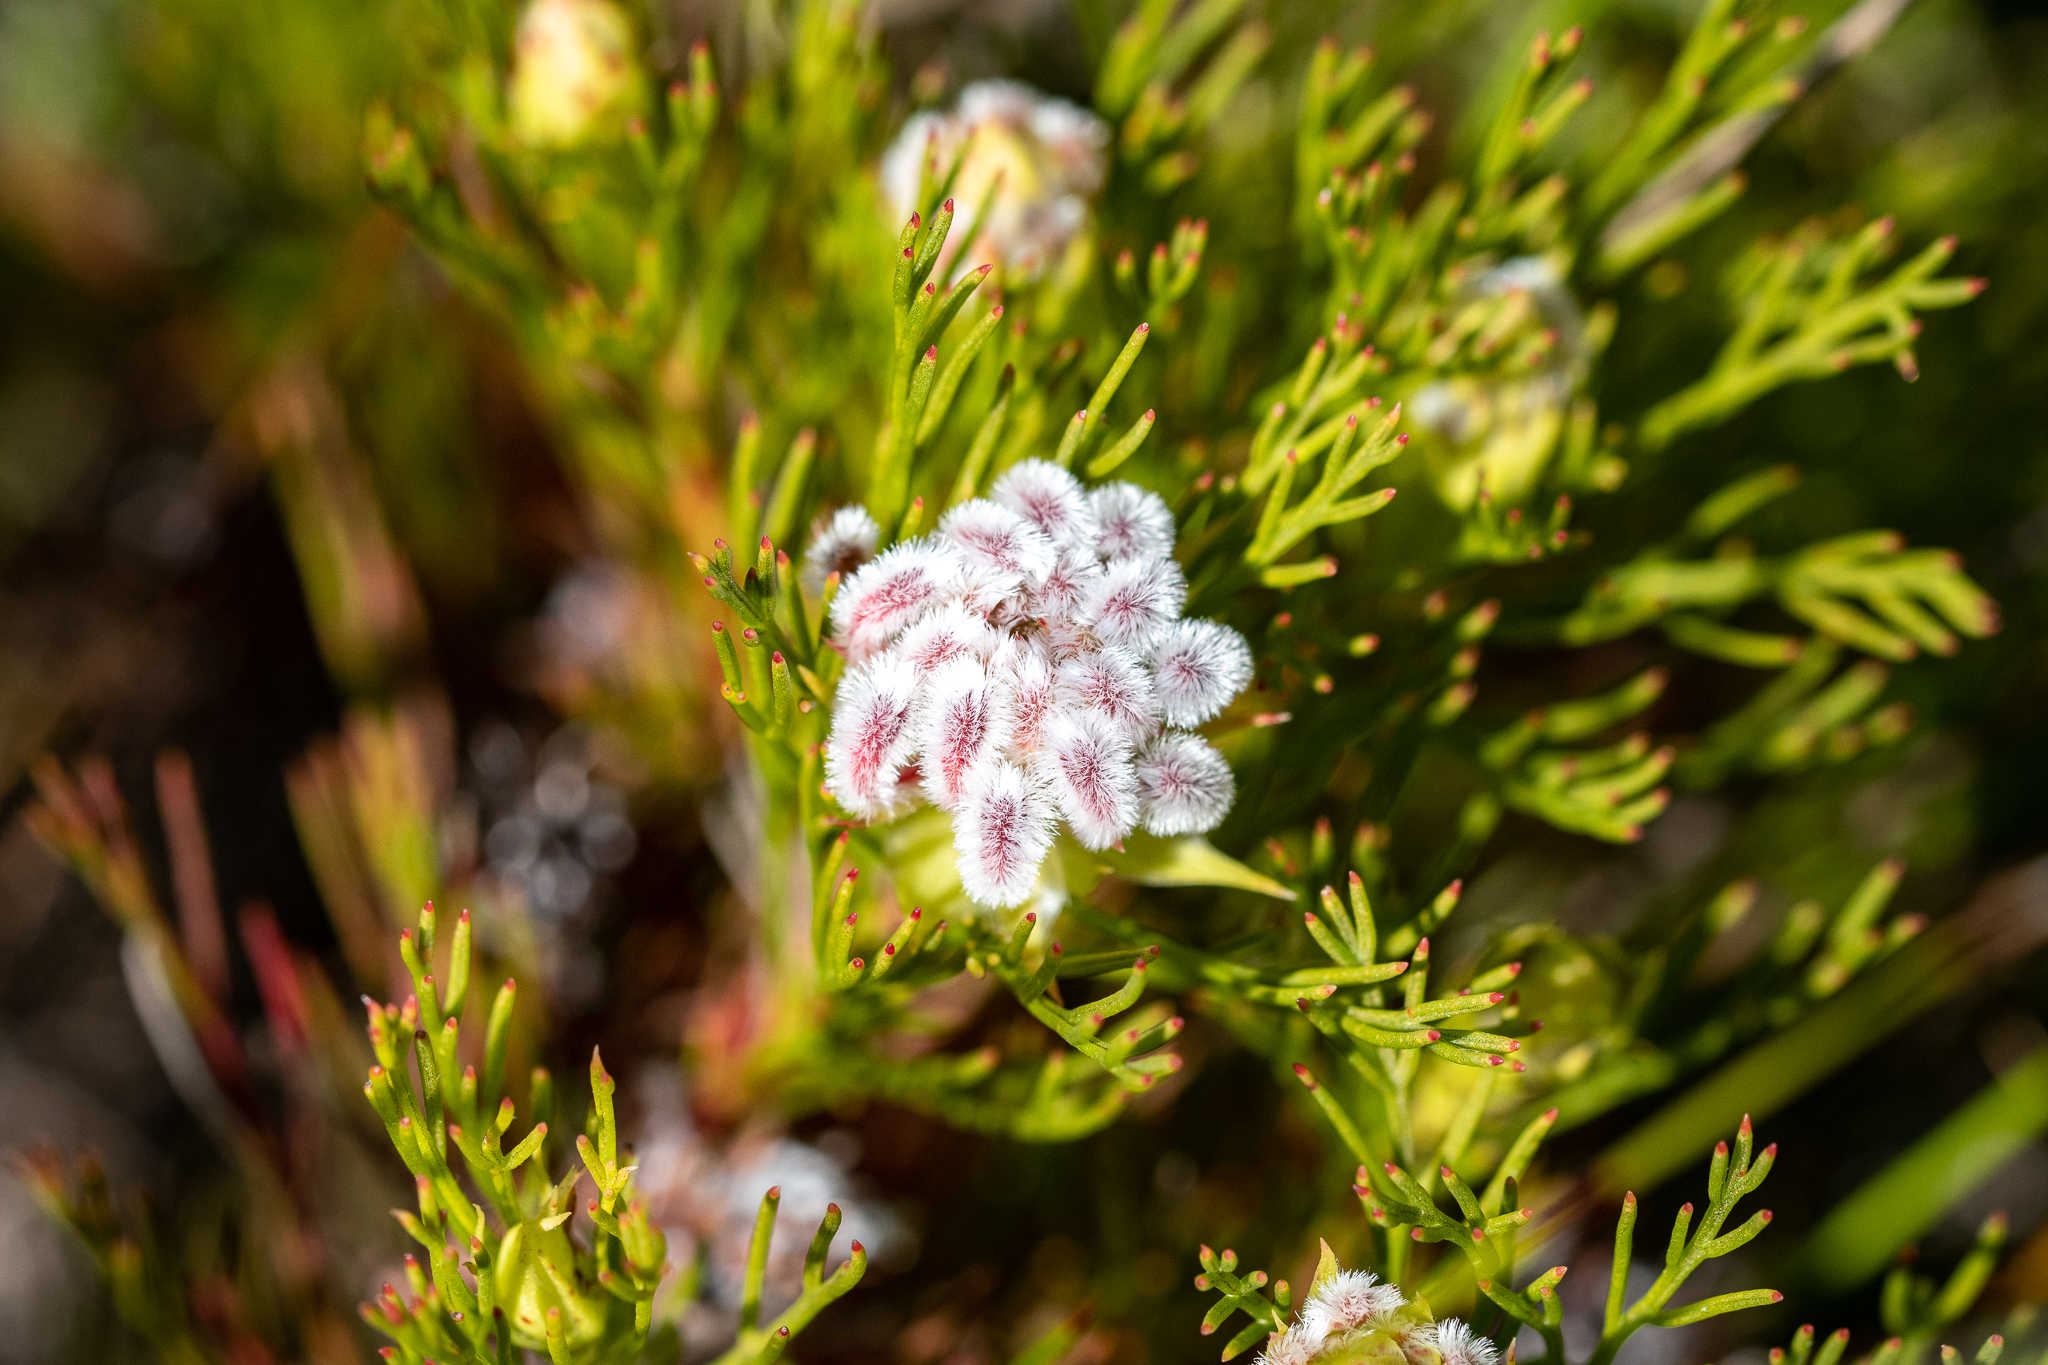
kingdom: Plantae
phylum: Tracheophyta
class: Magnoliopsida
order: Proteales
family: Proteaceae
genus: Serruria
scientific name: Serruria rostellaris
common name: Remote spiderhead
